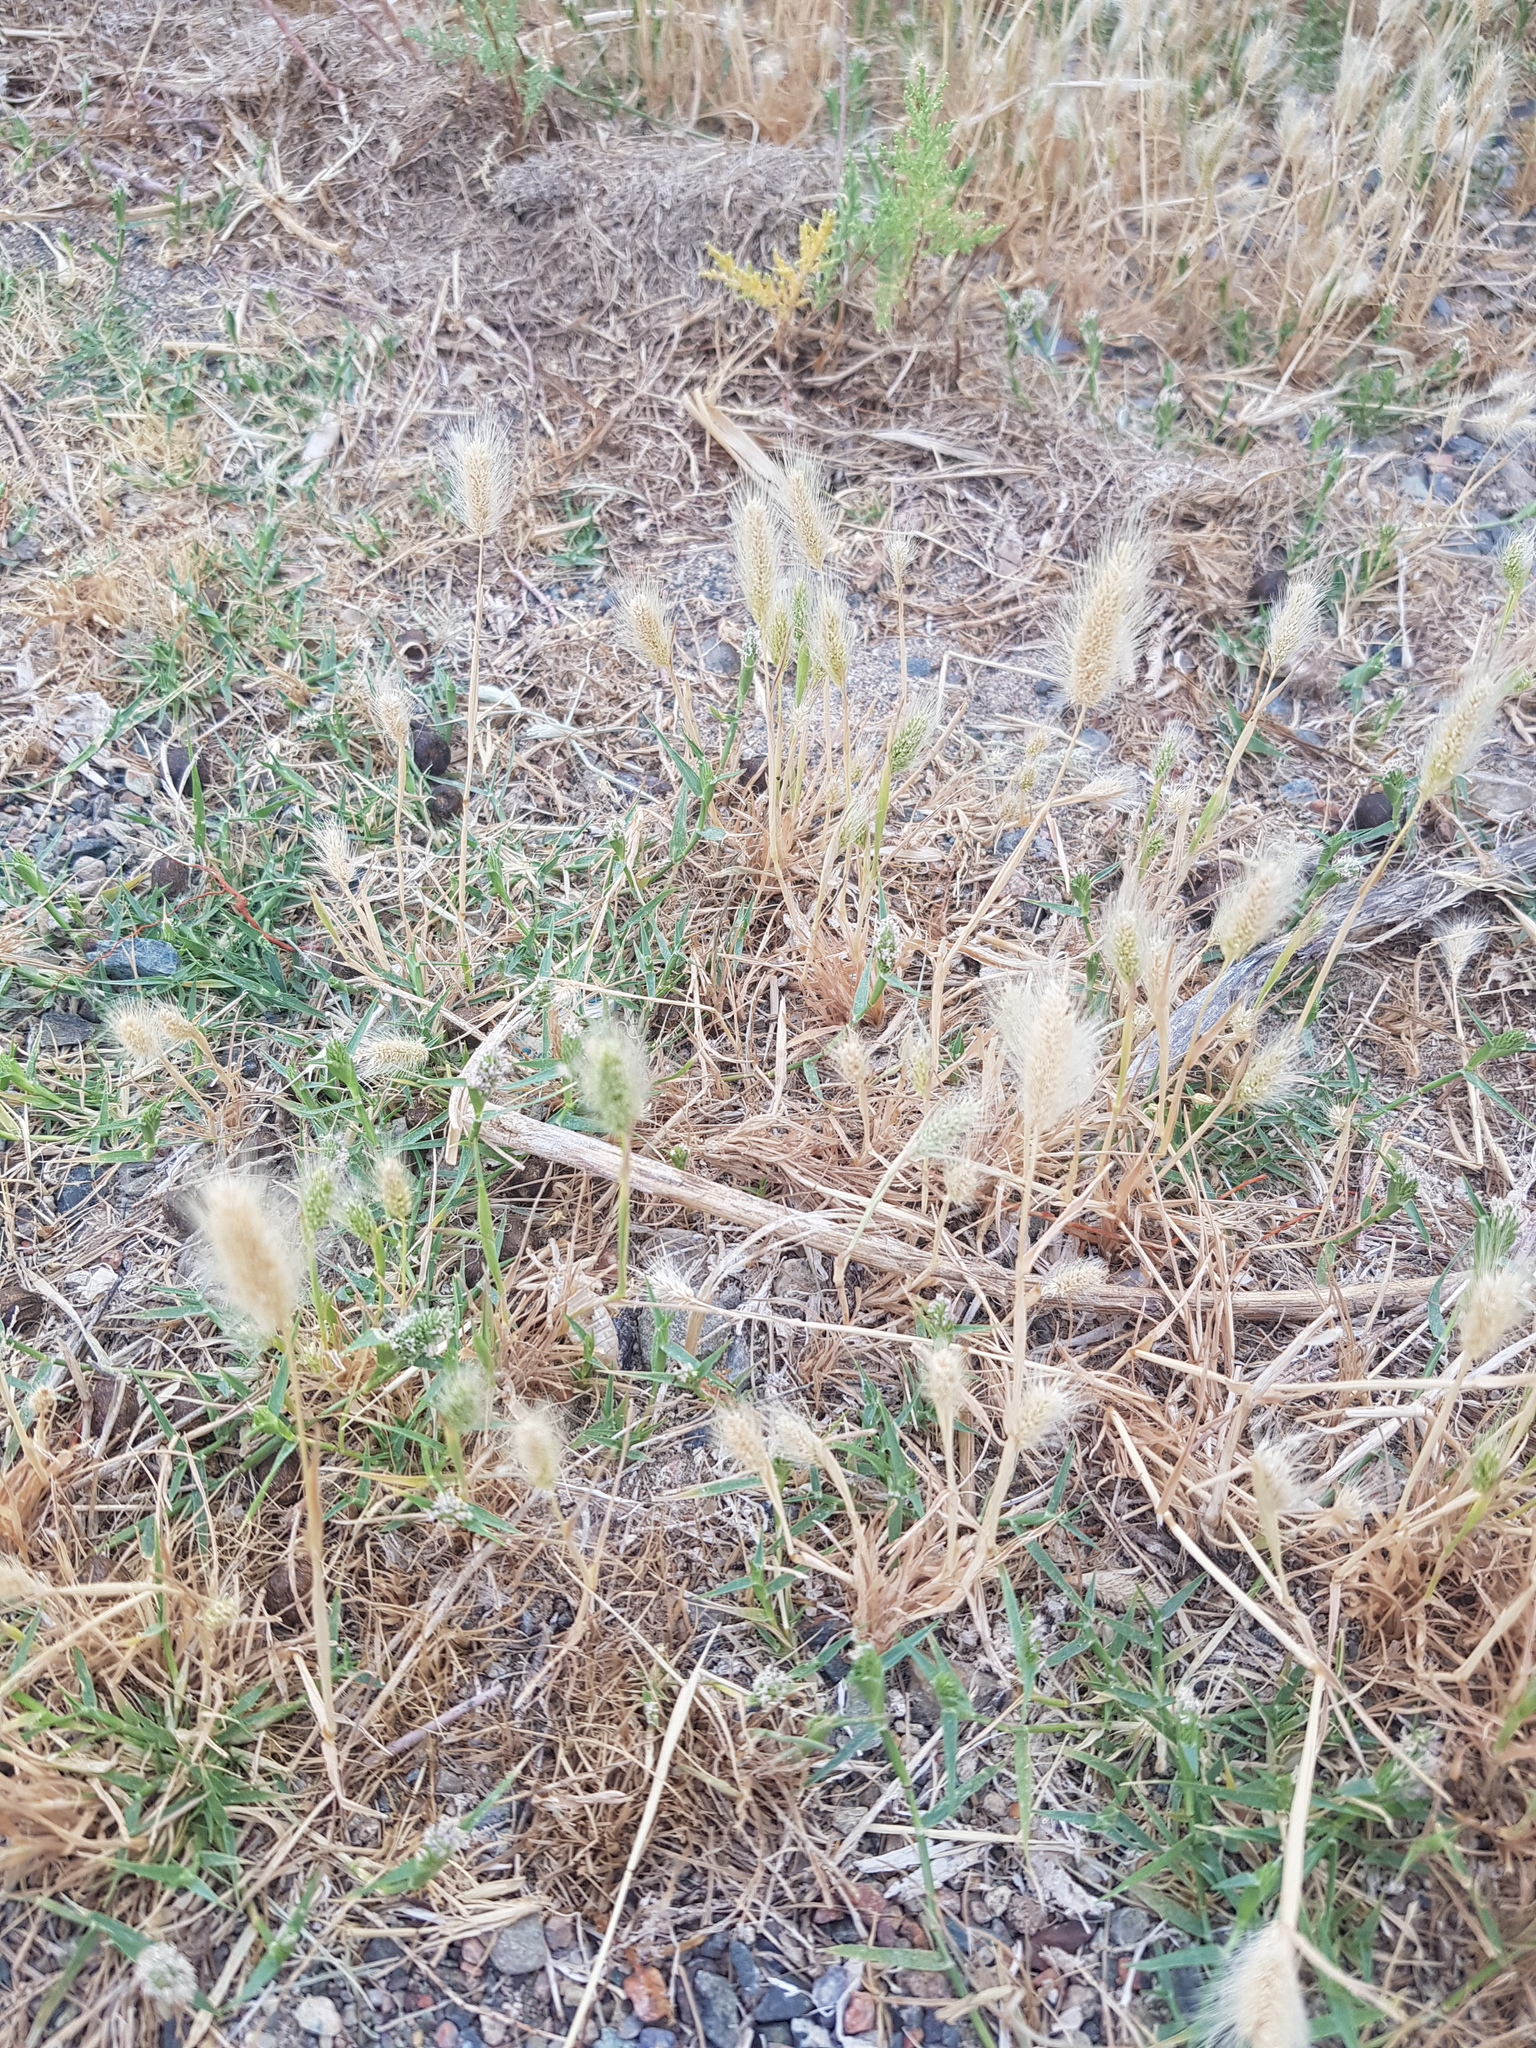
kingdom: Plantae
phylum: Tracheophyta
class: Liliopsida
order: Poales
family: Poaceae
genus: Setaria
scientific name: Setaria viridis
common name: Green bristlegrass
